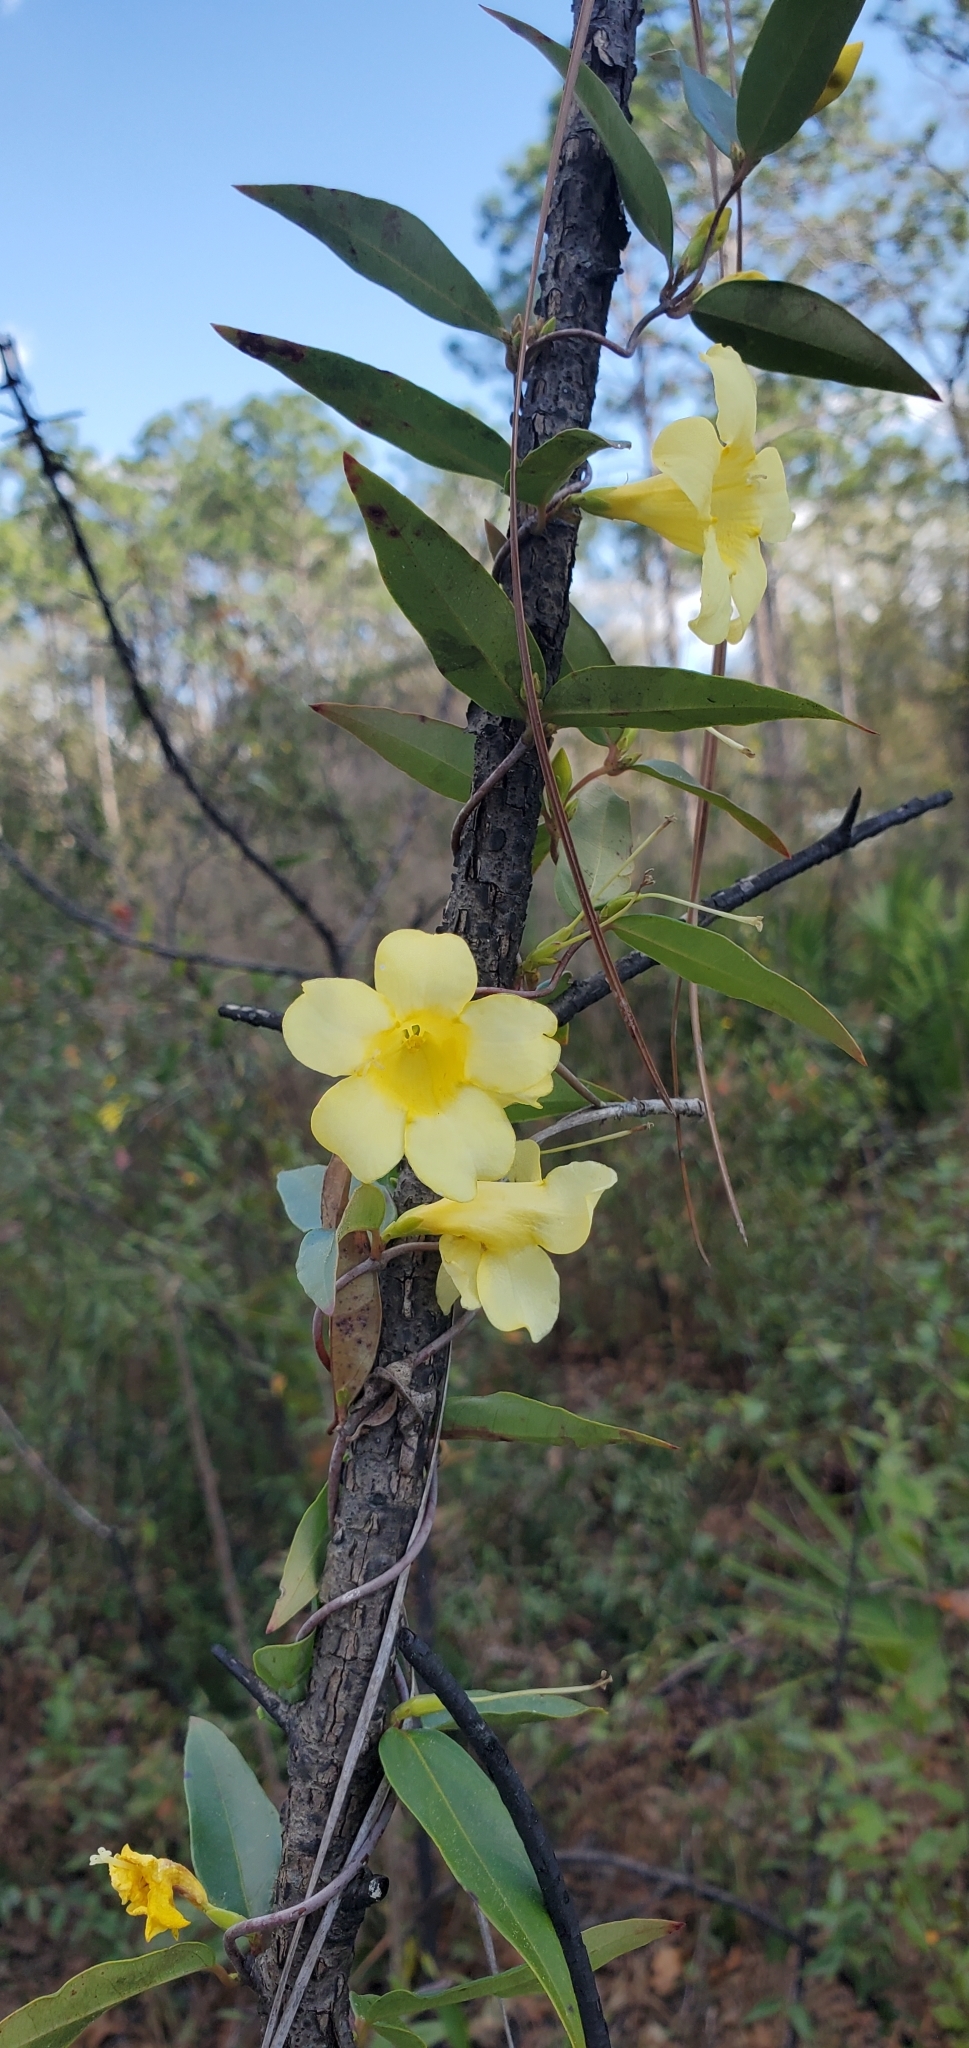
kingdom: Plantae
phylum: Tracheophyta
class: Magnoliopsida
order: Gentianales
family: Gelsemiaceae
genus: Gelsemium
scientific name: Gelsemium sempervirens
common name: Carolina-jasmine
